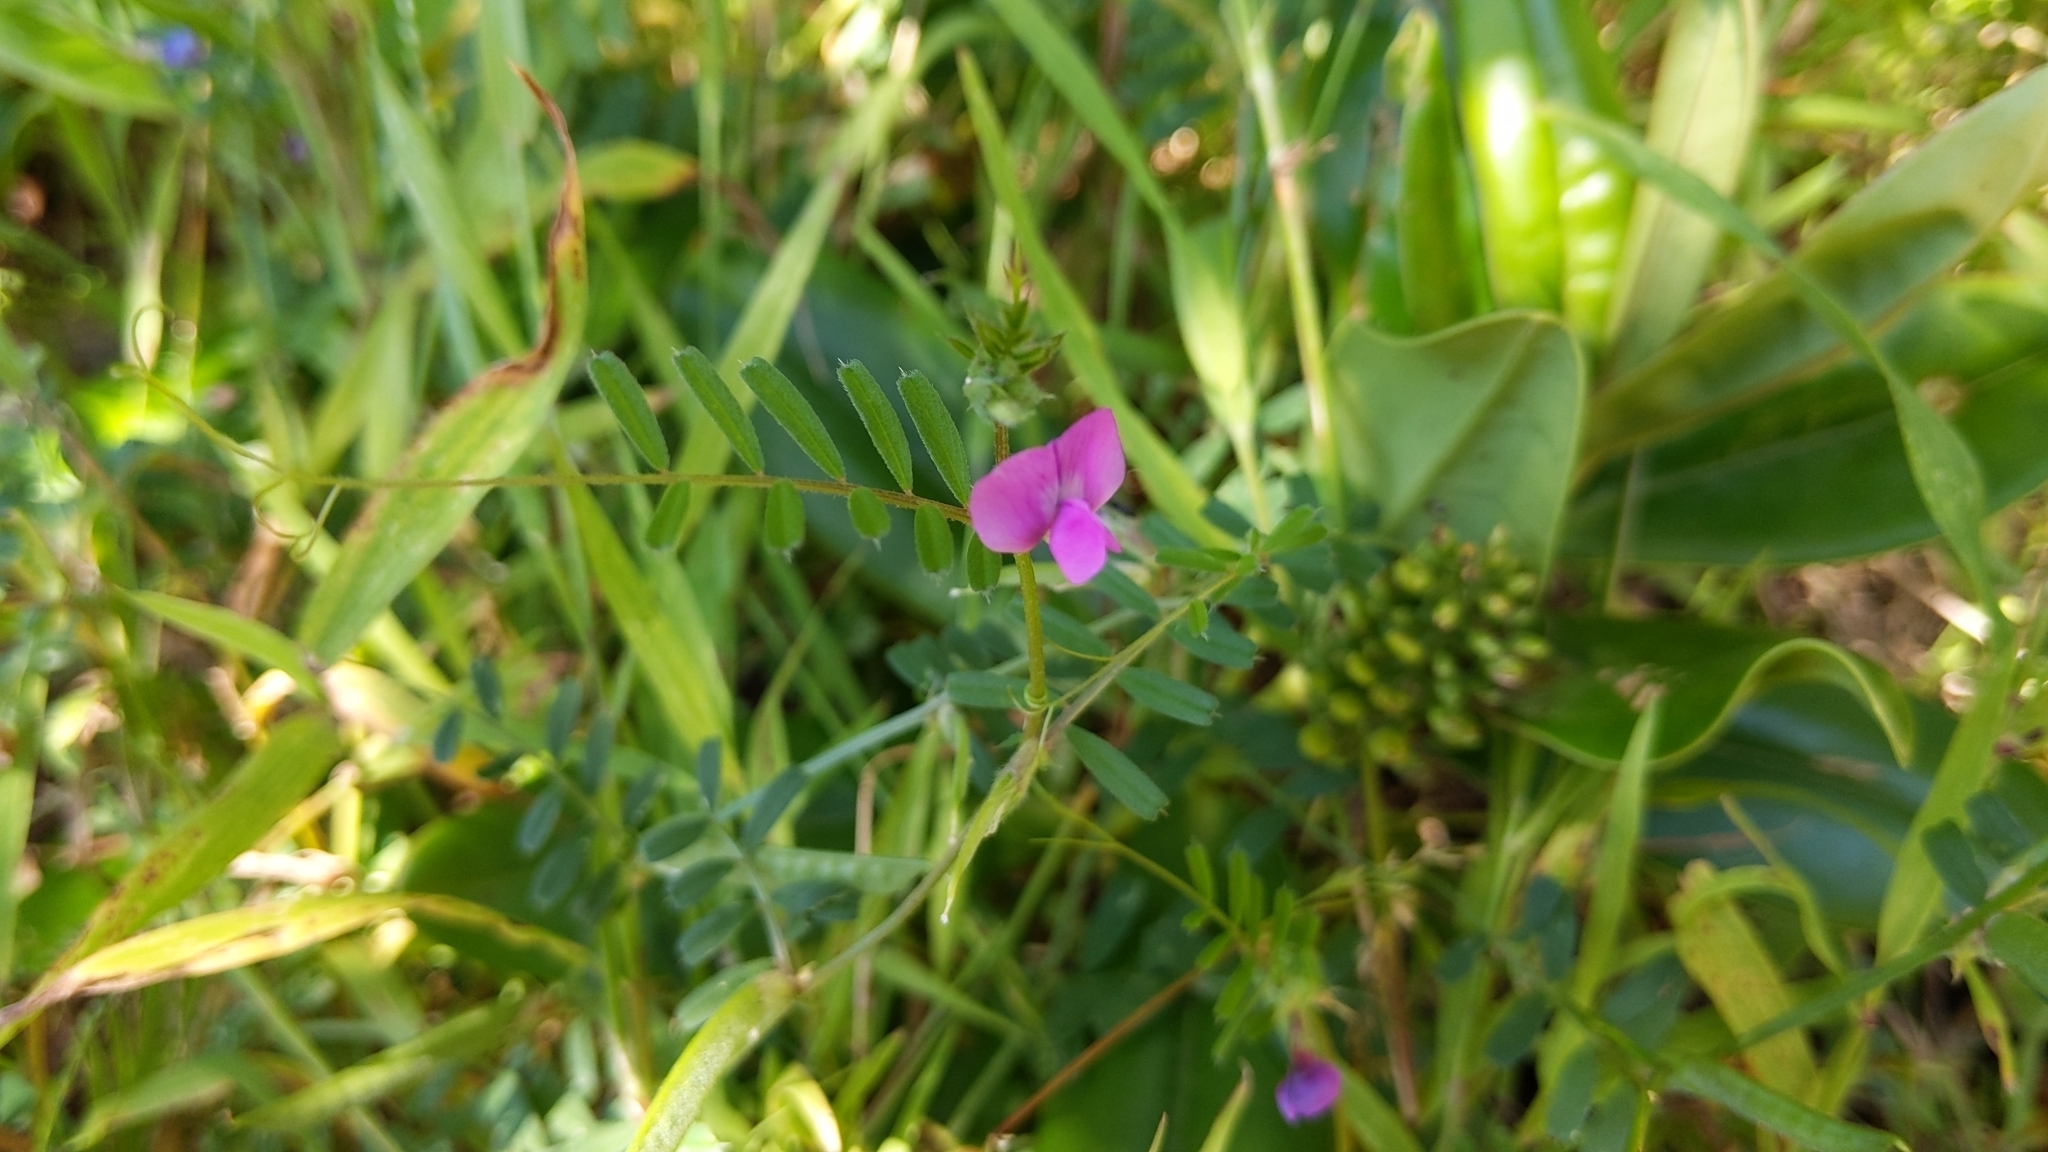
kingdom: Plantae
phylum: Tracheophyta
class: Magnoliopsida
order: Fabales
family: Fabaceae
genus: Vicia
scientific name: Vicia sativa
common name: Garden vetch
